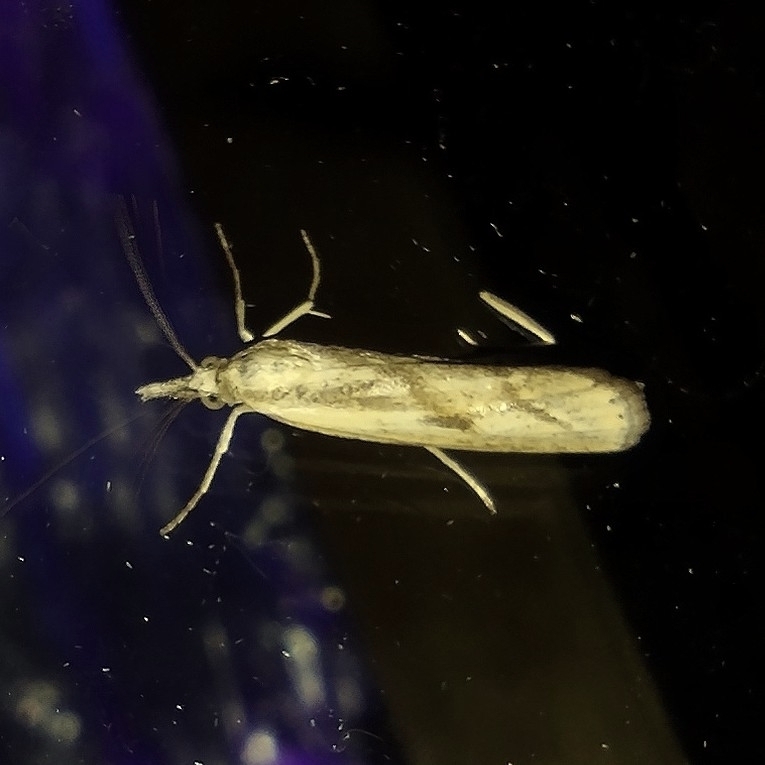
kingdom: Animalia
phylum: Arthropoda
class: Insecta
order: Lepidoptera
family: Crambidae
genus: Agriphila
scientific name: Agriphila inquinatella
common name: Barred grass-veneer
